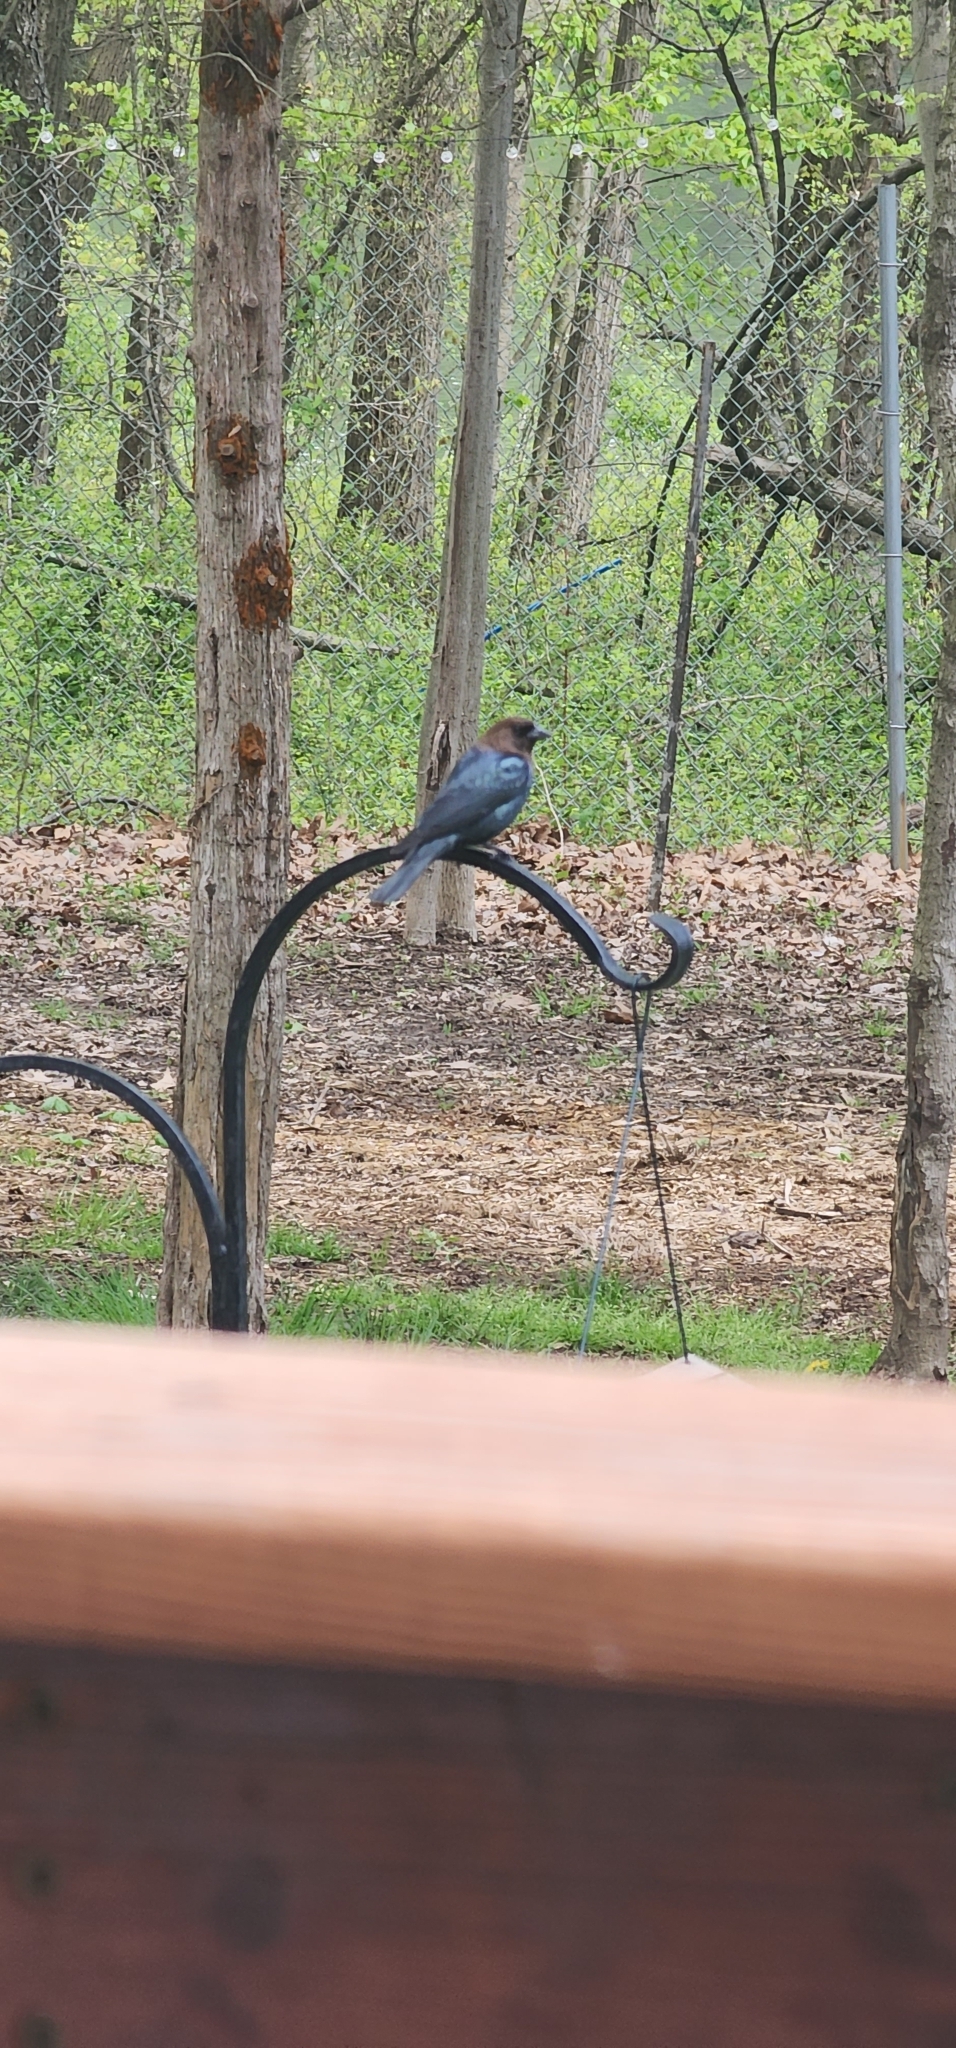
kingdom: Animalia
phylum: Chordata
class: Aves
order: Passeriformes
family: Icteridae
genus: Molothrus
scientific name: Molothrus ater
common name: Brown-headed cowbird
